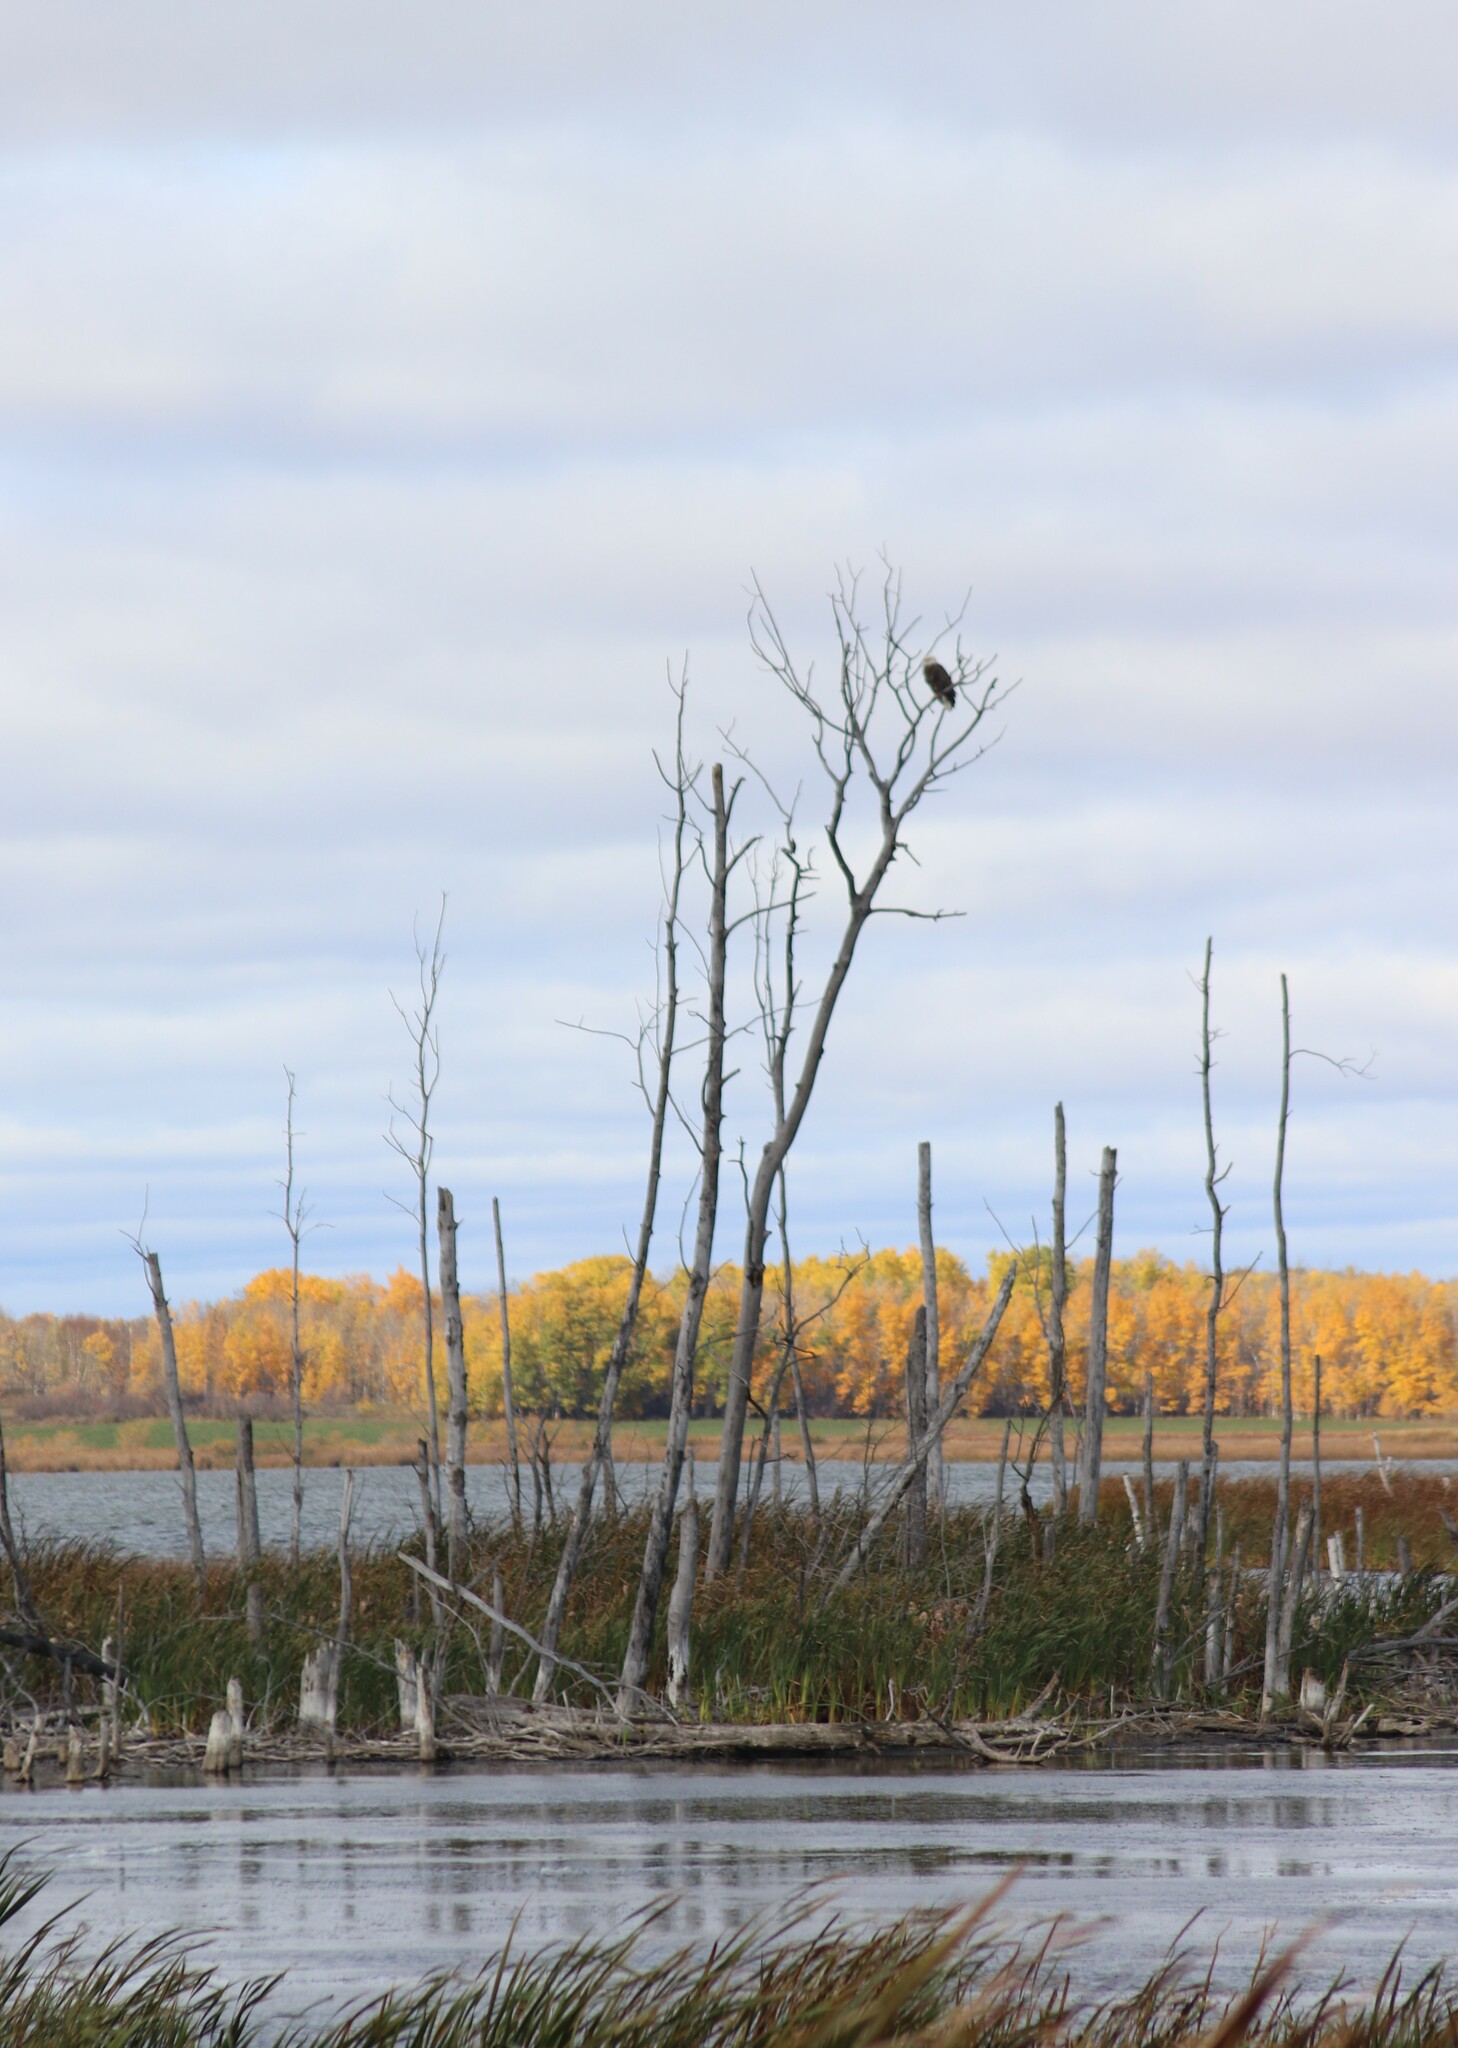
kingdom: Animalia
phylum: Chordata
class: Aves
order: Accipitriformes
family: Accipitridae
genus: Haliaeetus
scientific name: Haliaeetus leucocephalus
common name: Bald eagle
